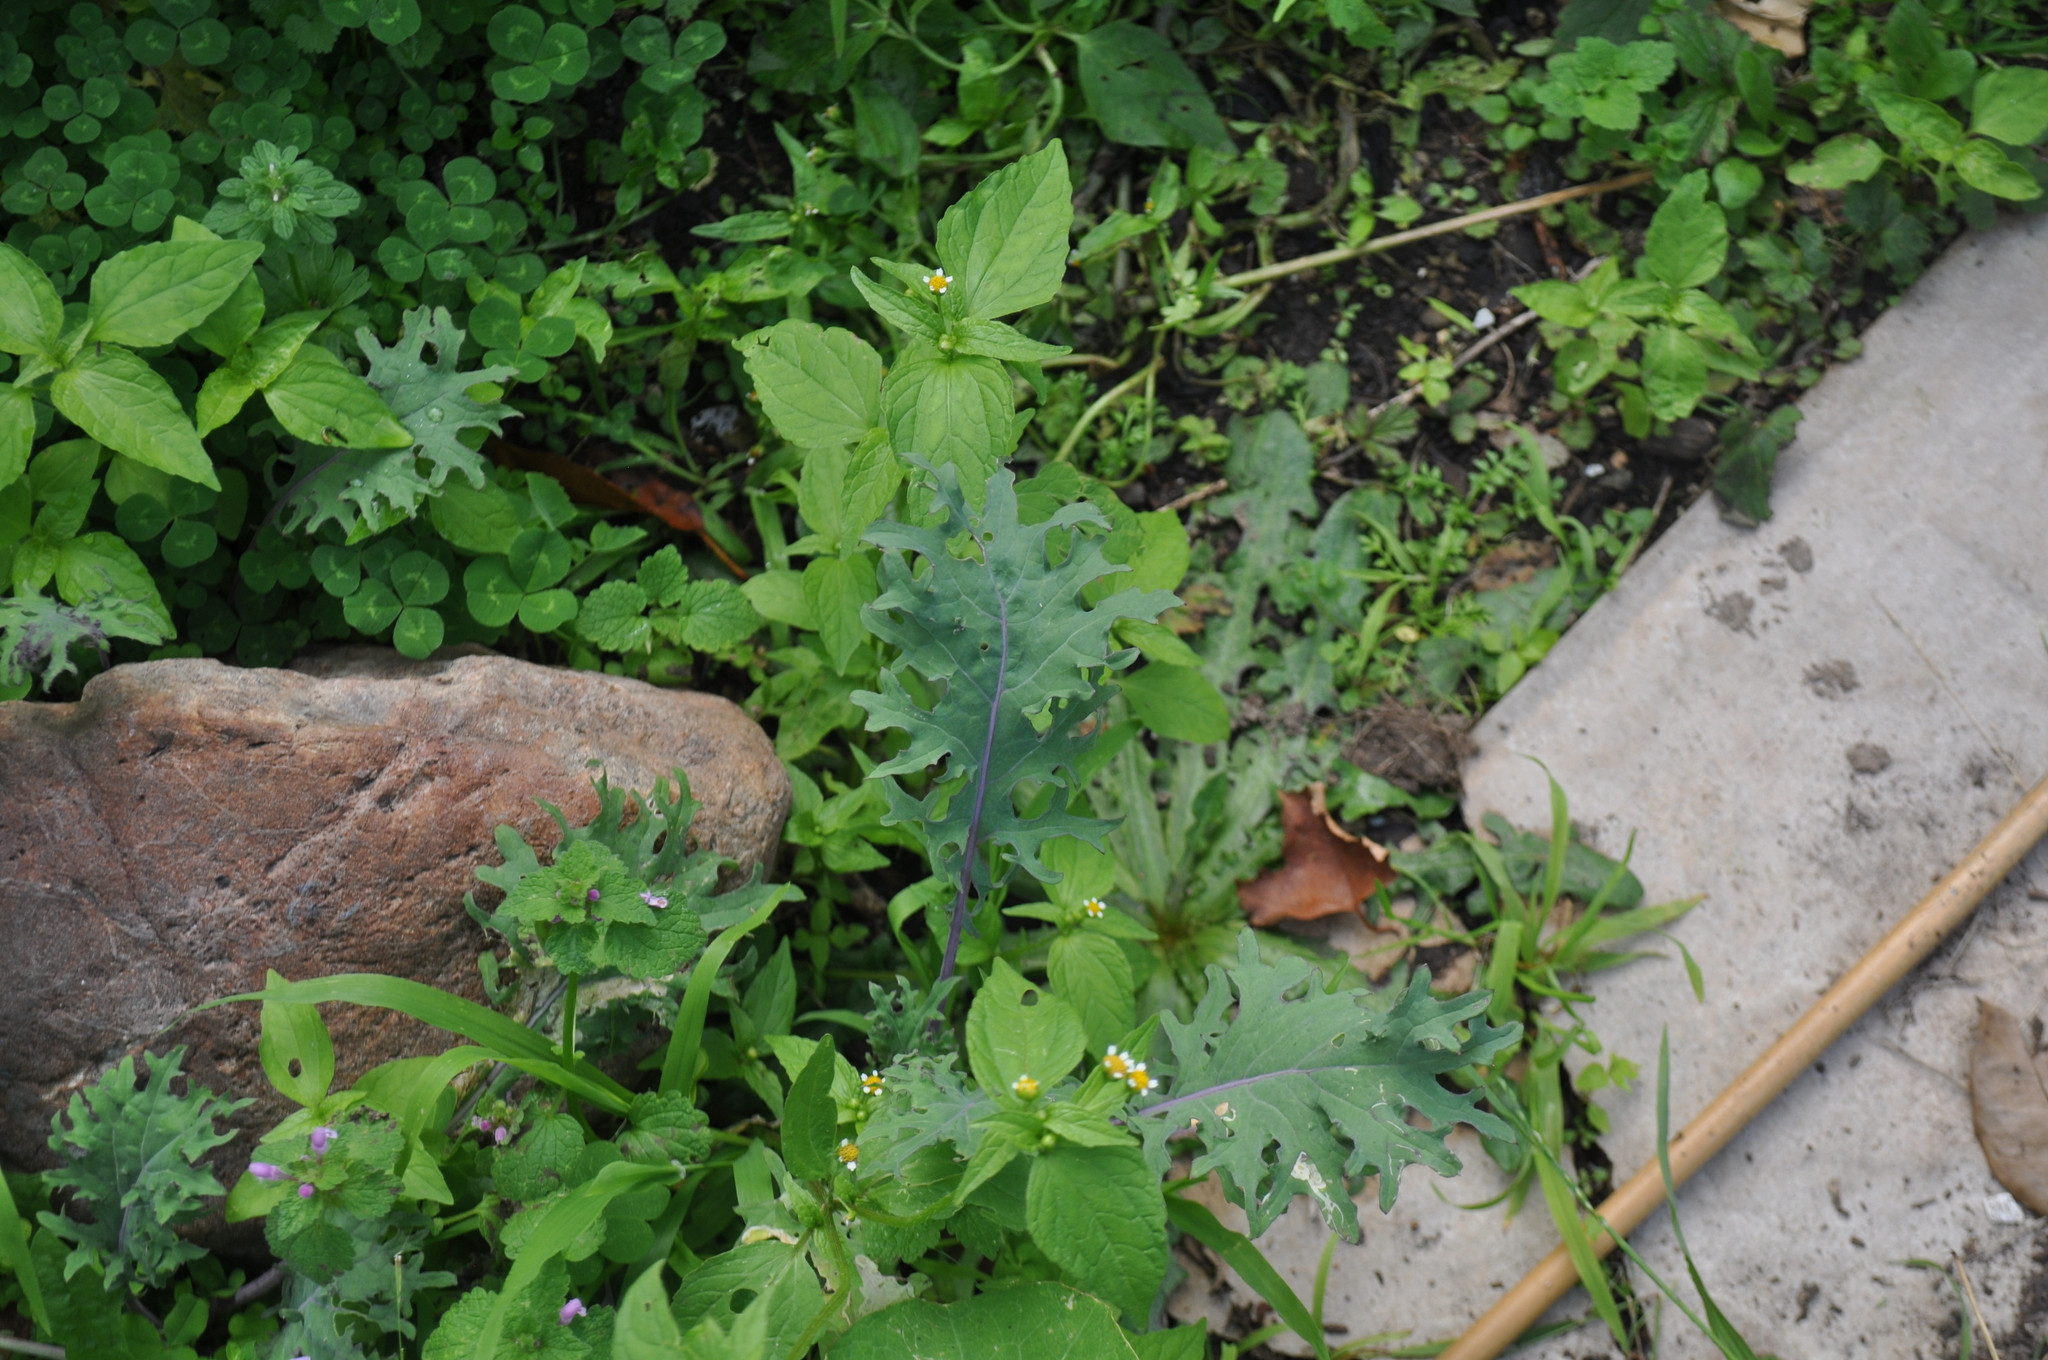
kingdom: Plantae
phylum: Tracheophyta
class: Magnoliopsida
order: Brassicales
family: Brassicaceae
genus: Brassica
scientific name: Brassica oleracea
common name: Cabbage
